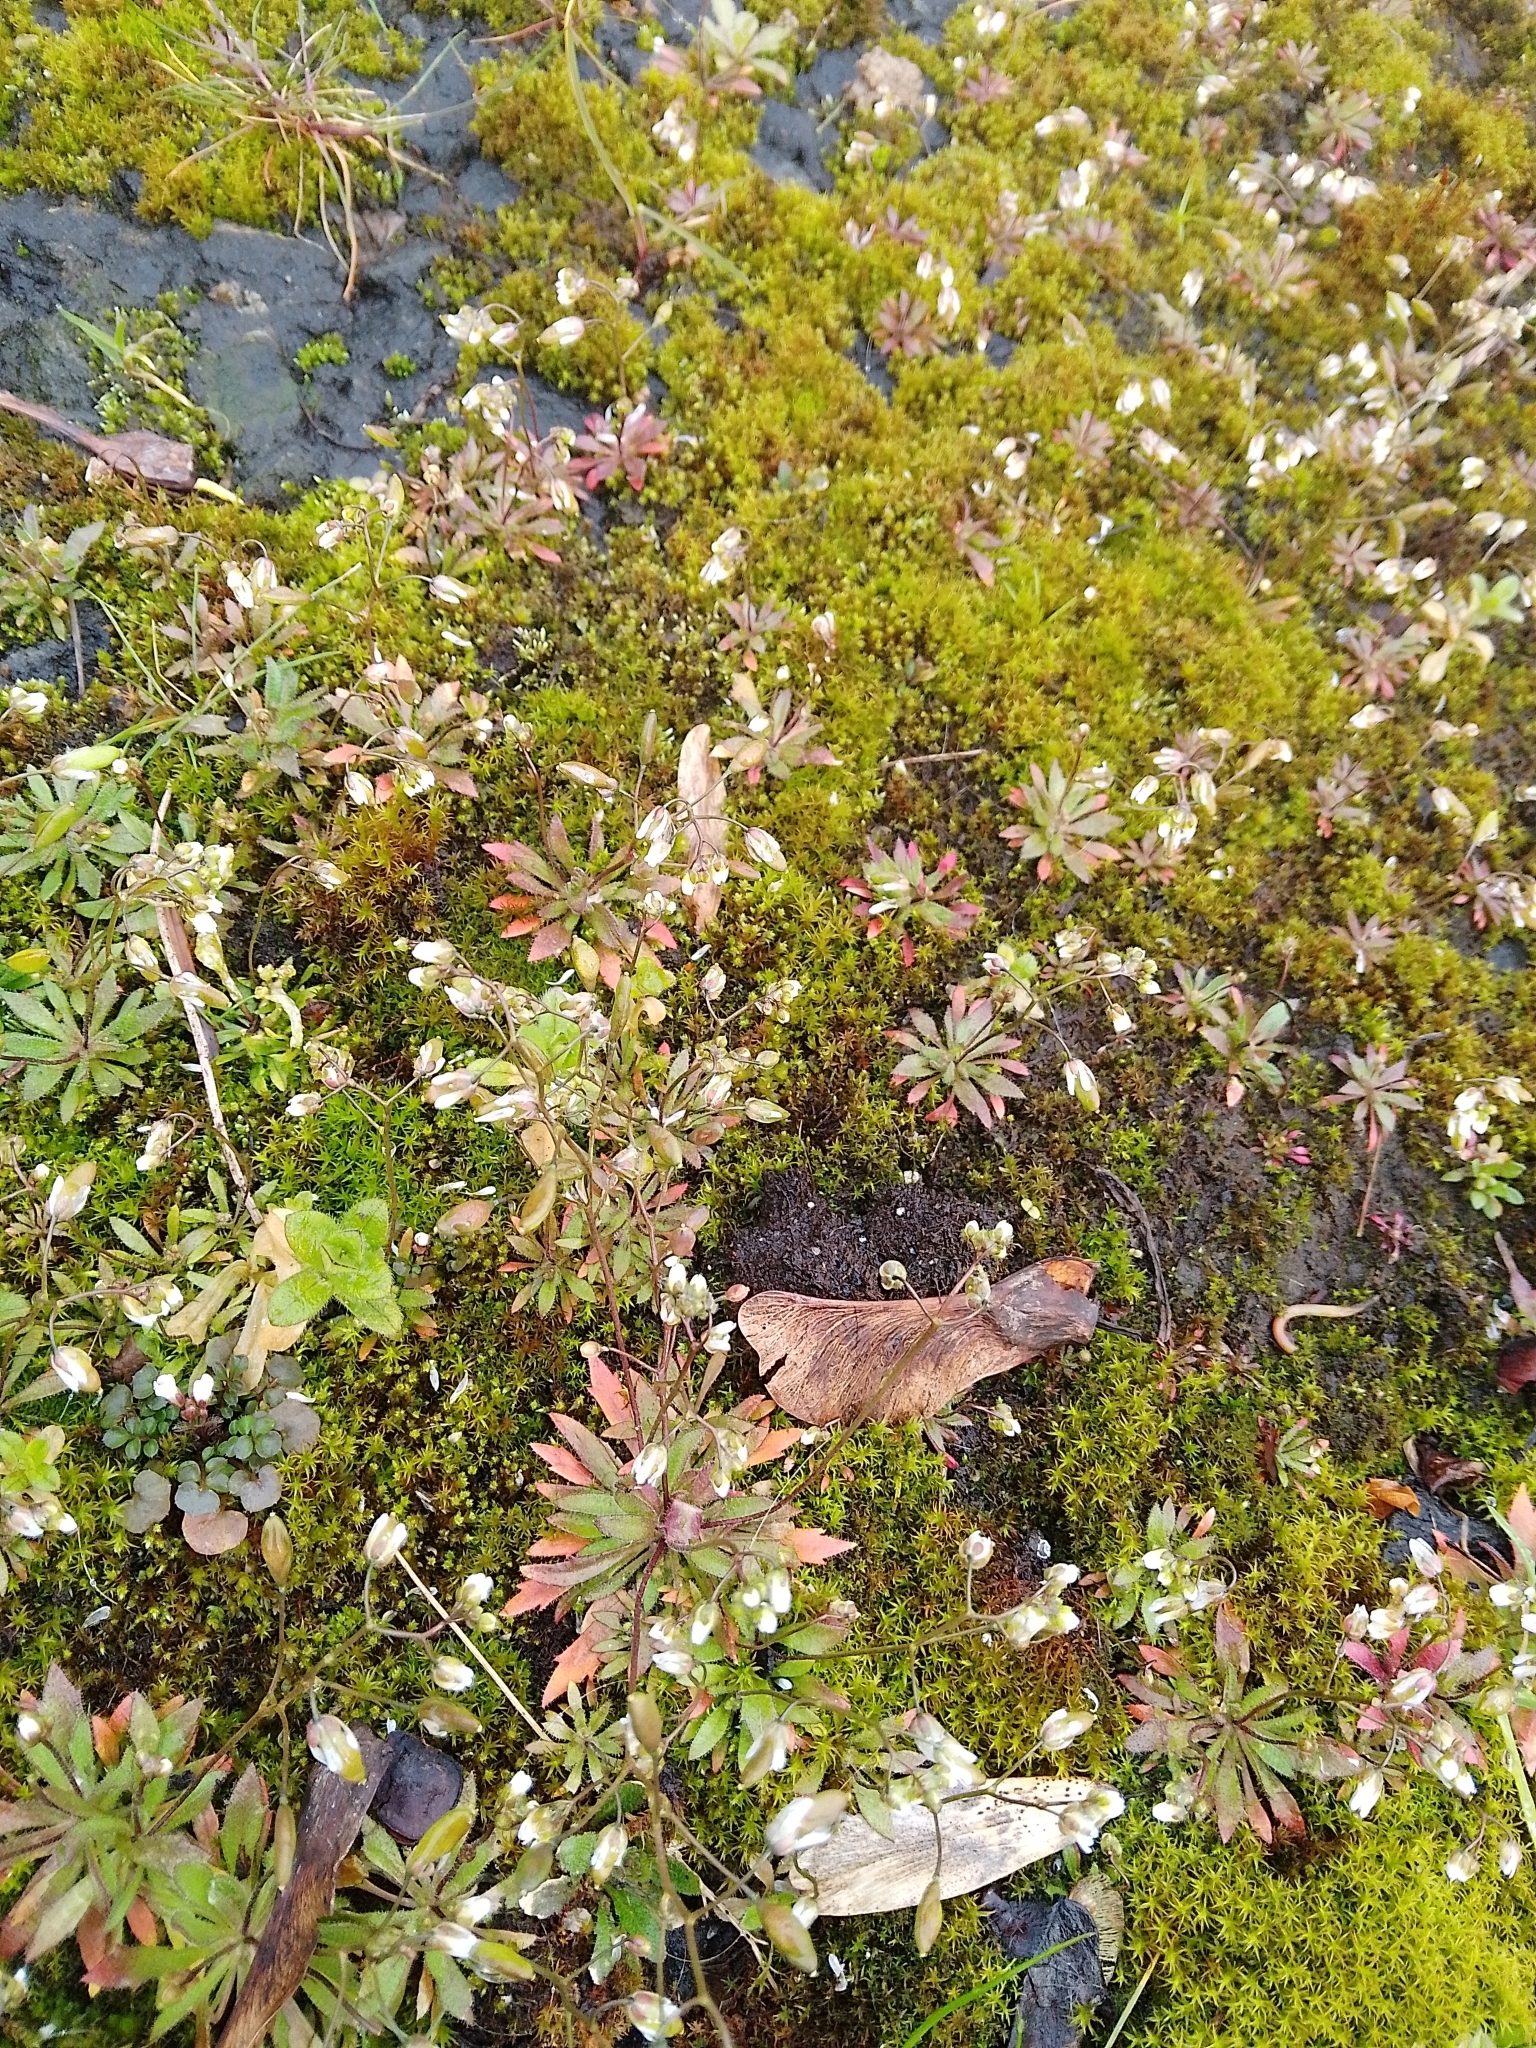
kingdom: Plantae
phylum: Tracheophyta
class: Magnoliopsida
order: Brassicales
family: Brassicaceae
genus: Draba
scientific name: Draba verna
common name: Spring draba
